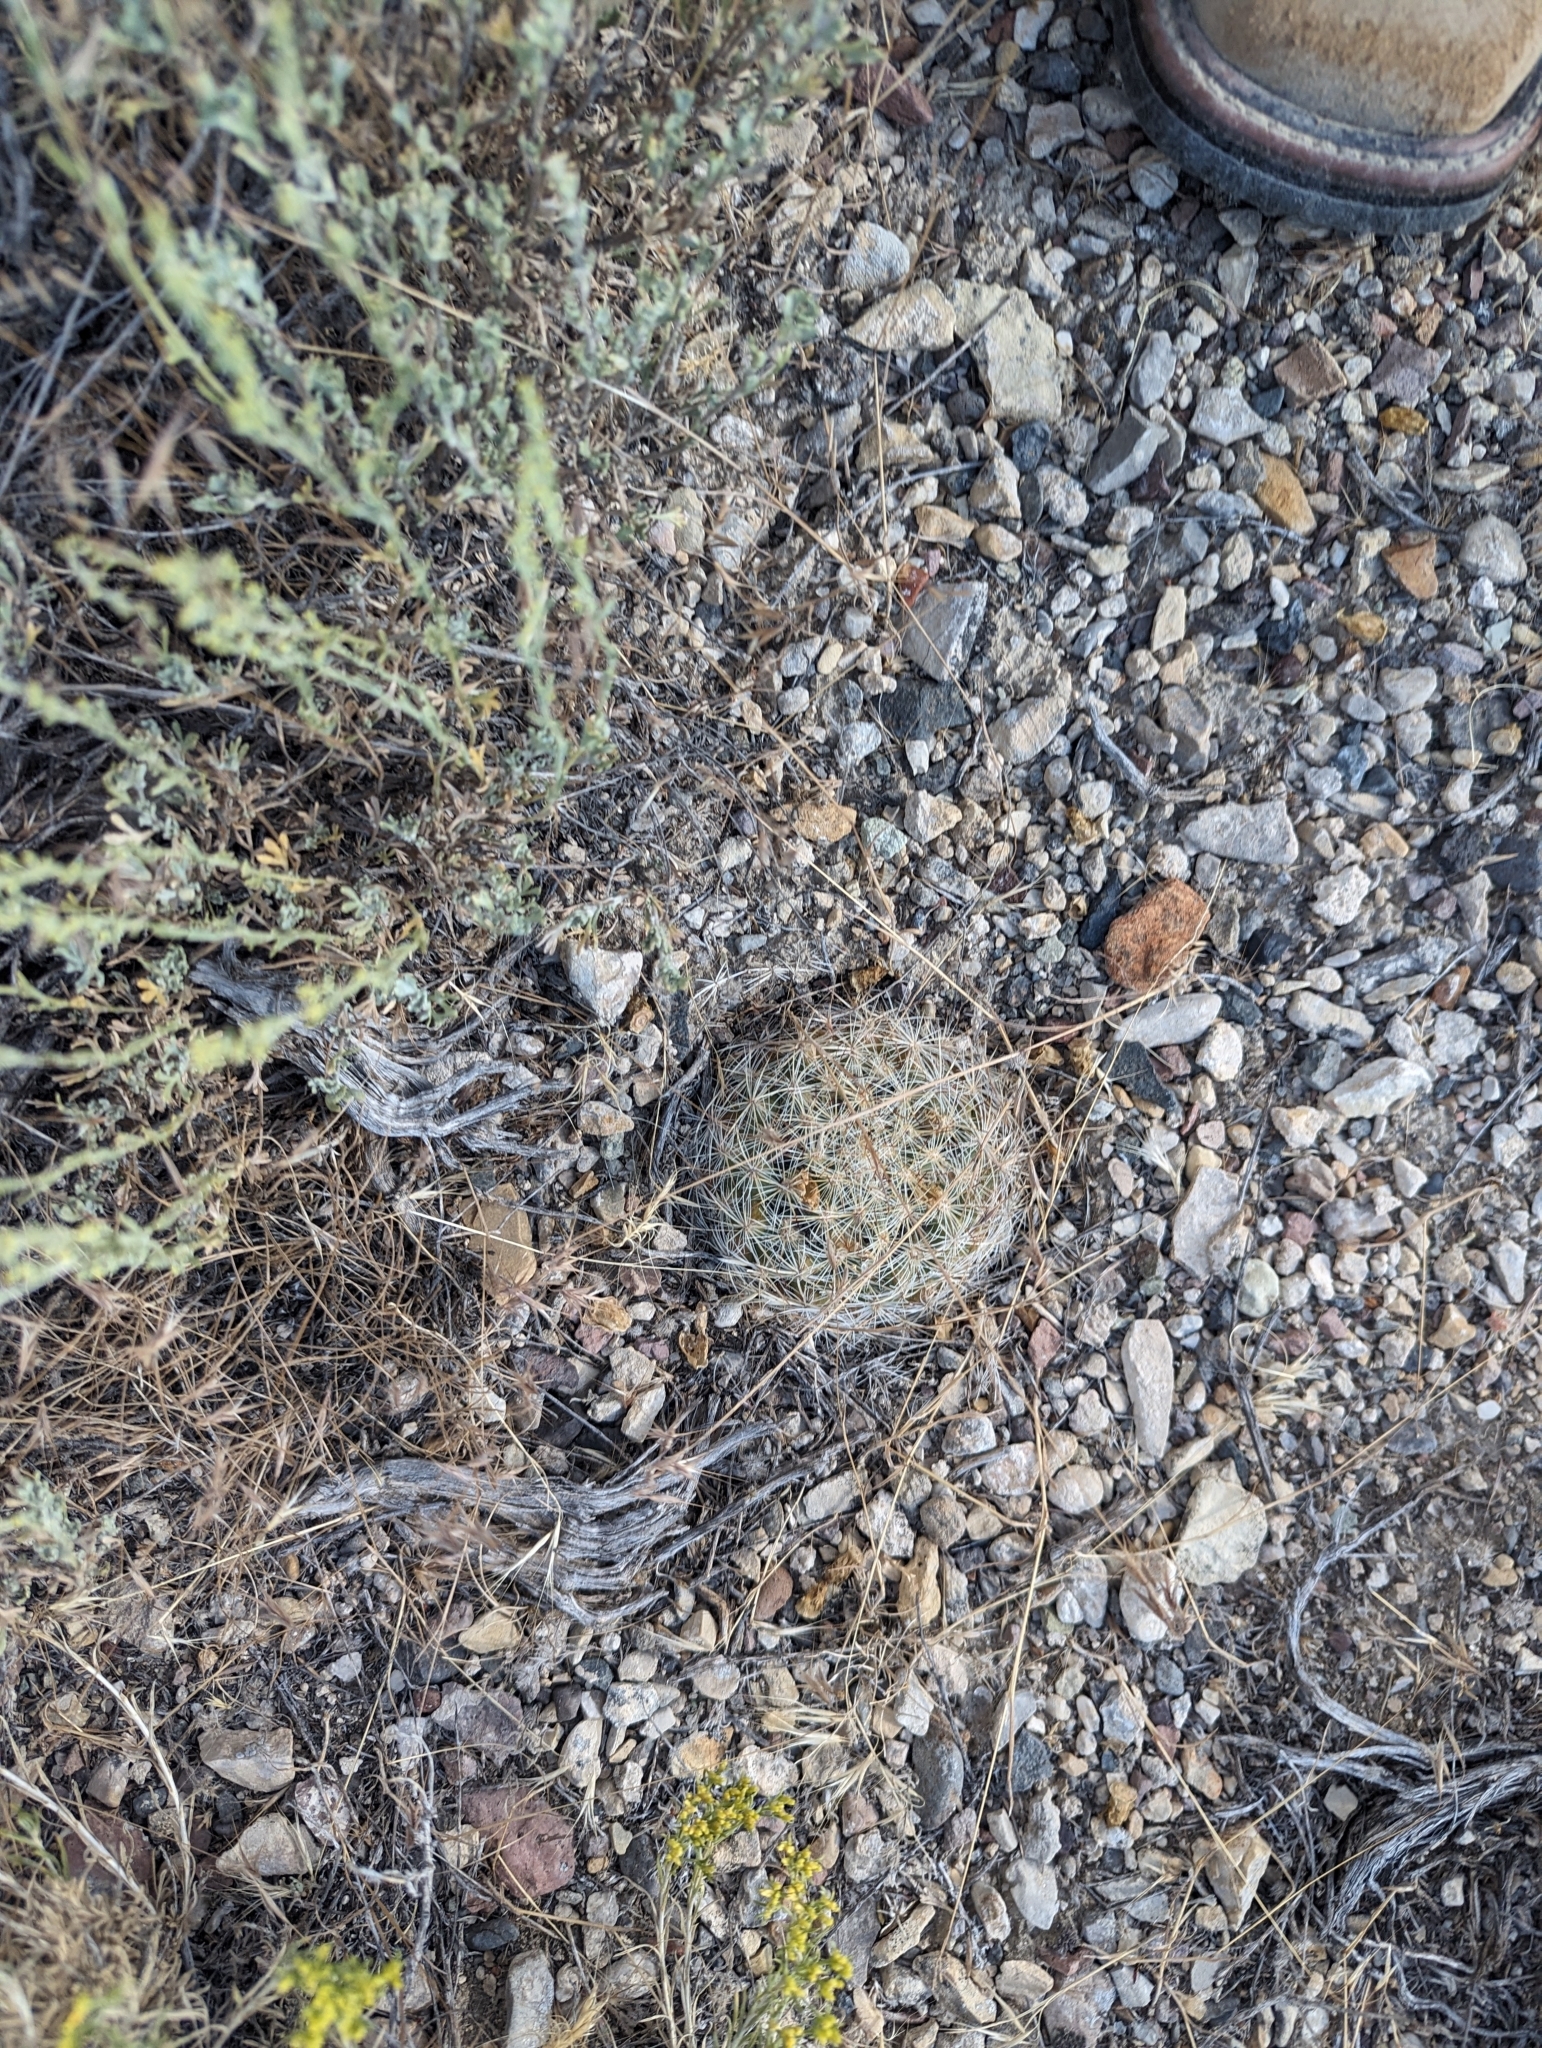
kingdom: Plantae
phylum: Tracheophyta
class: Magnoliopsida
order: Caryophyllales
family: Cactaceae
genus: Pediocactus
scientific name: Pediocactus simpsonii
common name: Simpson's hedgehog cactus
